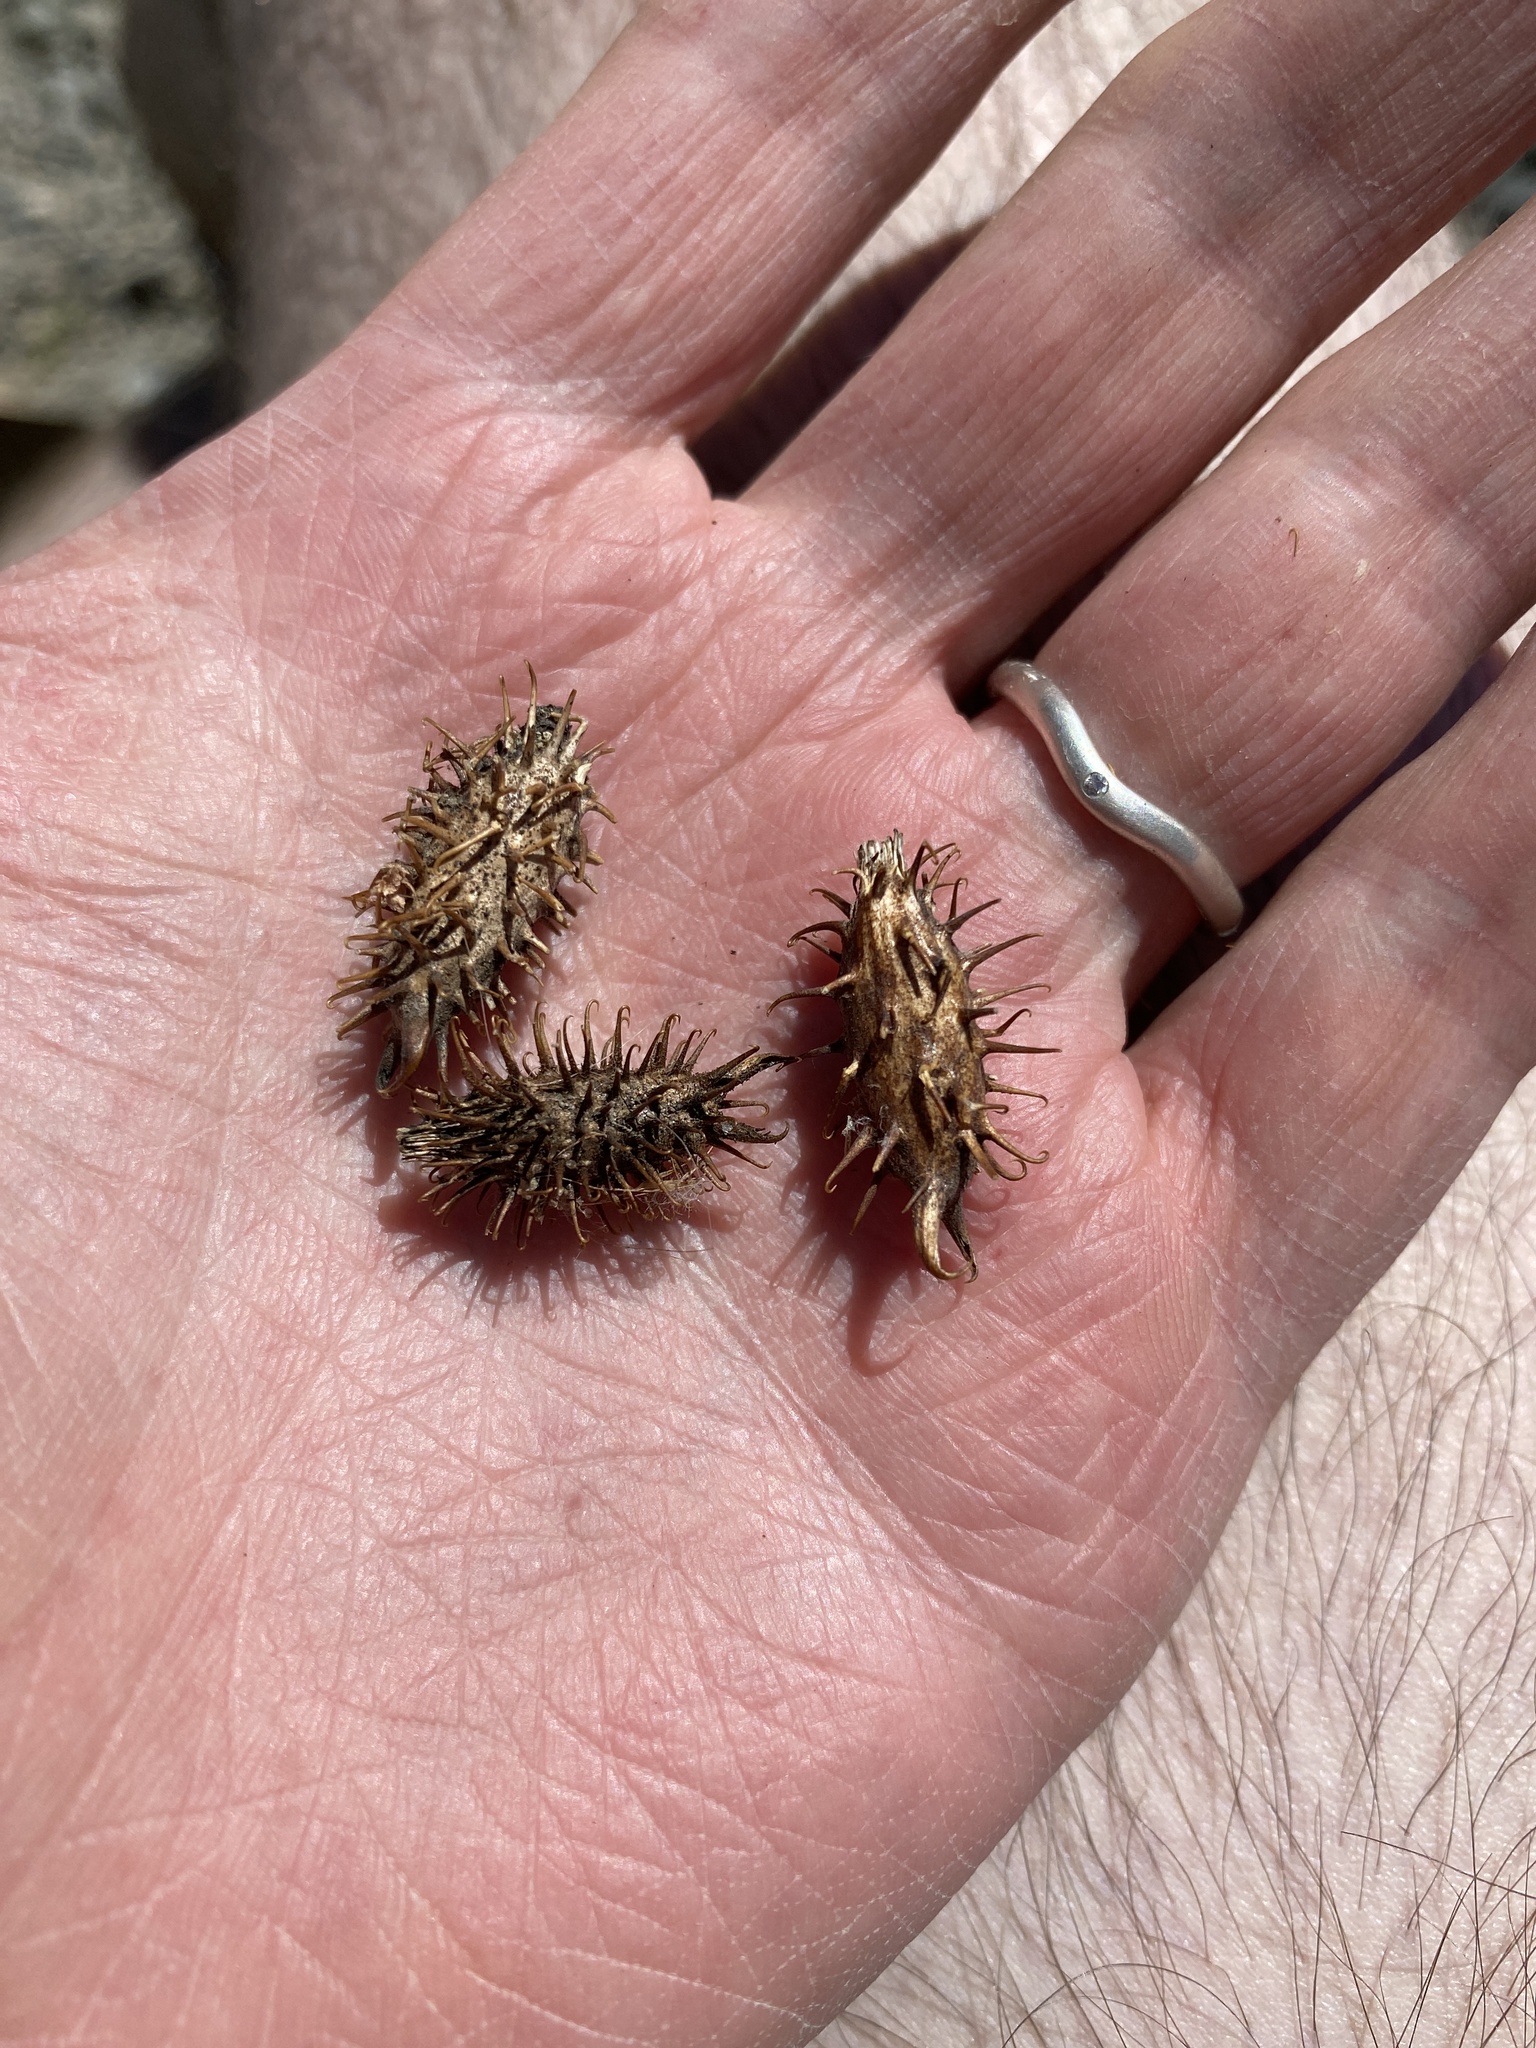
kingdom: Plantae
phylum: Tracheophyta
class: Magnoliopsida
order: Asterales
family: Asteraceae
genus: Xanthium
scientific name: Xanthium strumarium
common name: Rough cocklebur
